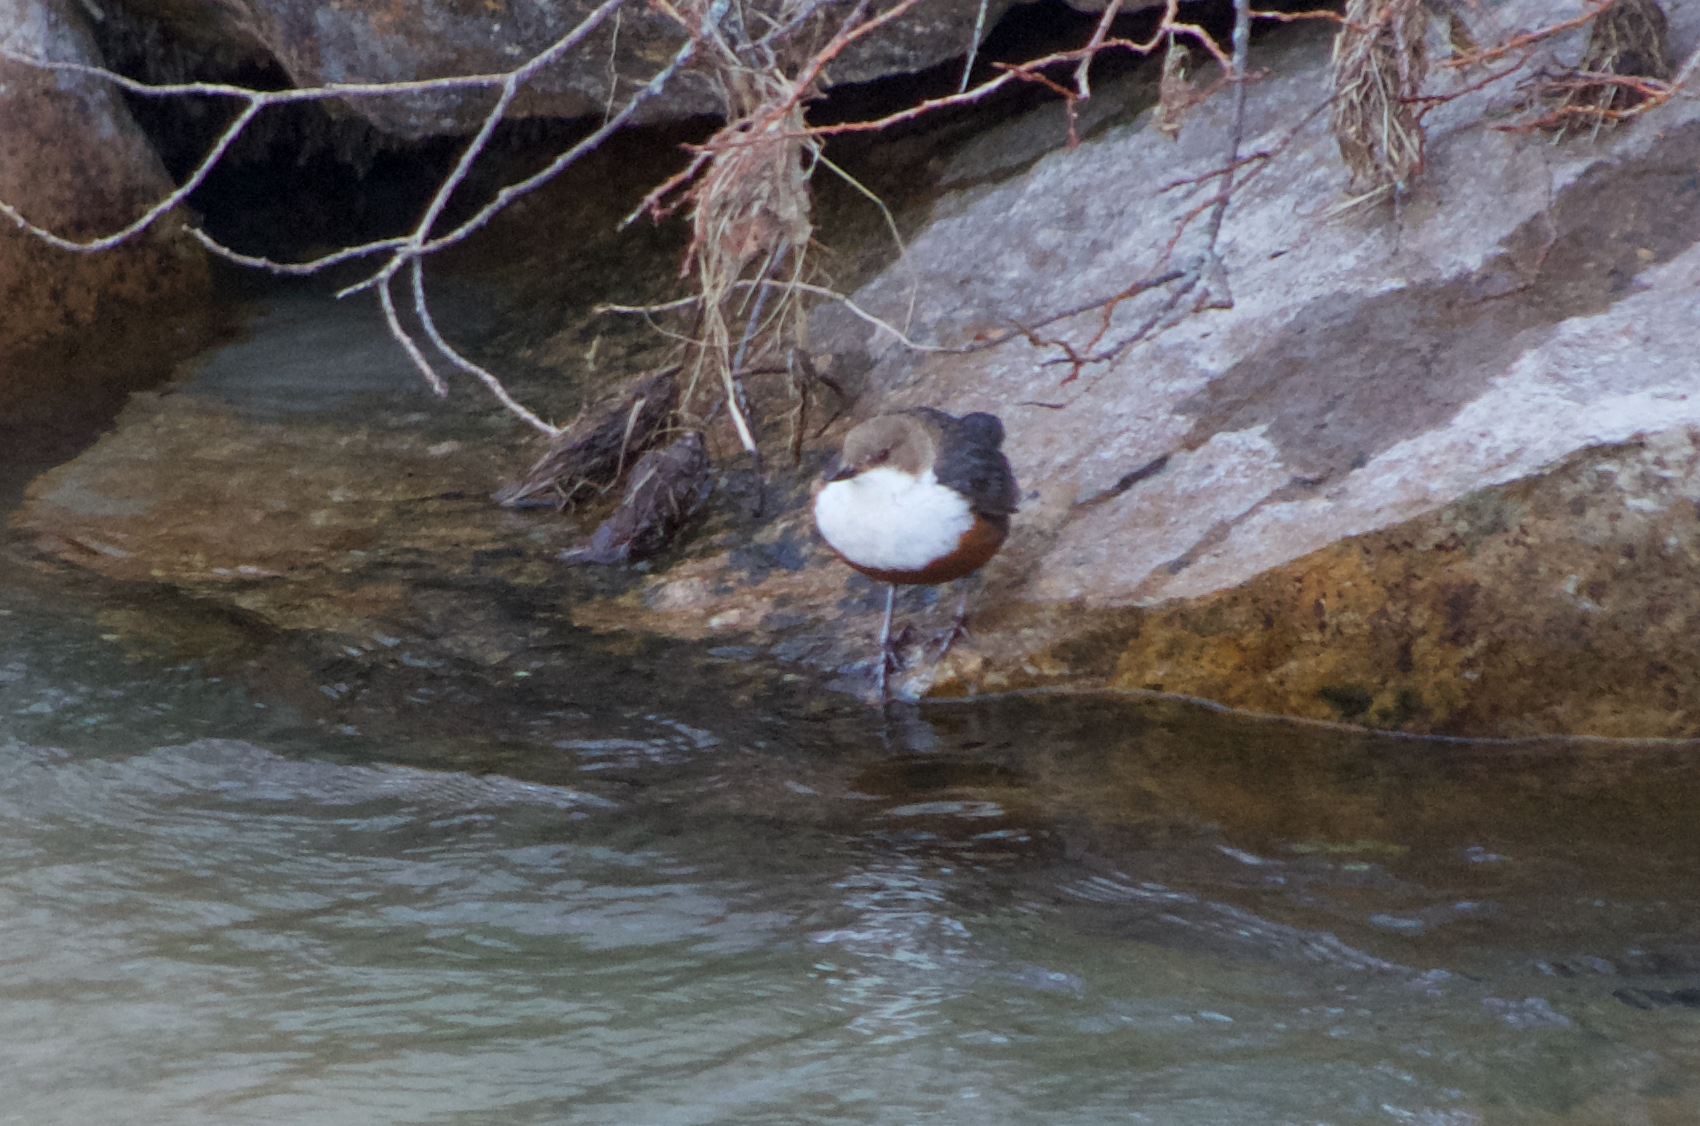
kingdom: Animalia
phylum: Chordata
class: Aves
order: Passeriformes
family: Cinclidae
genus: Cinclus
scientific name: Cinclus cinclus
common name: White-throated dipper
